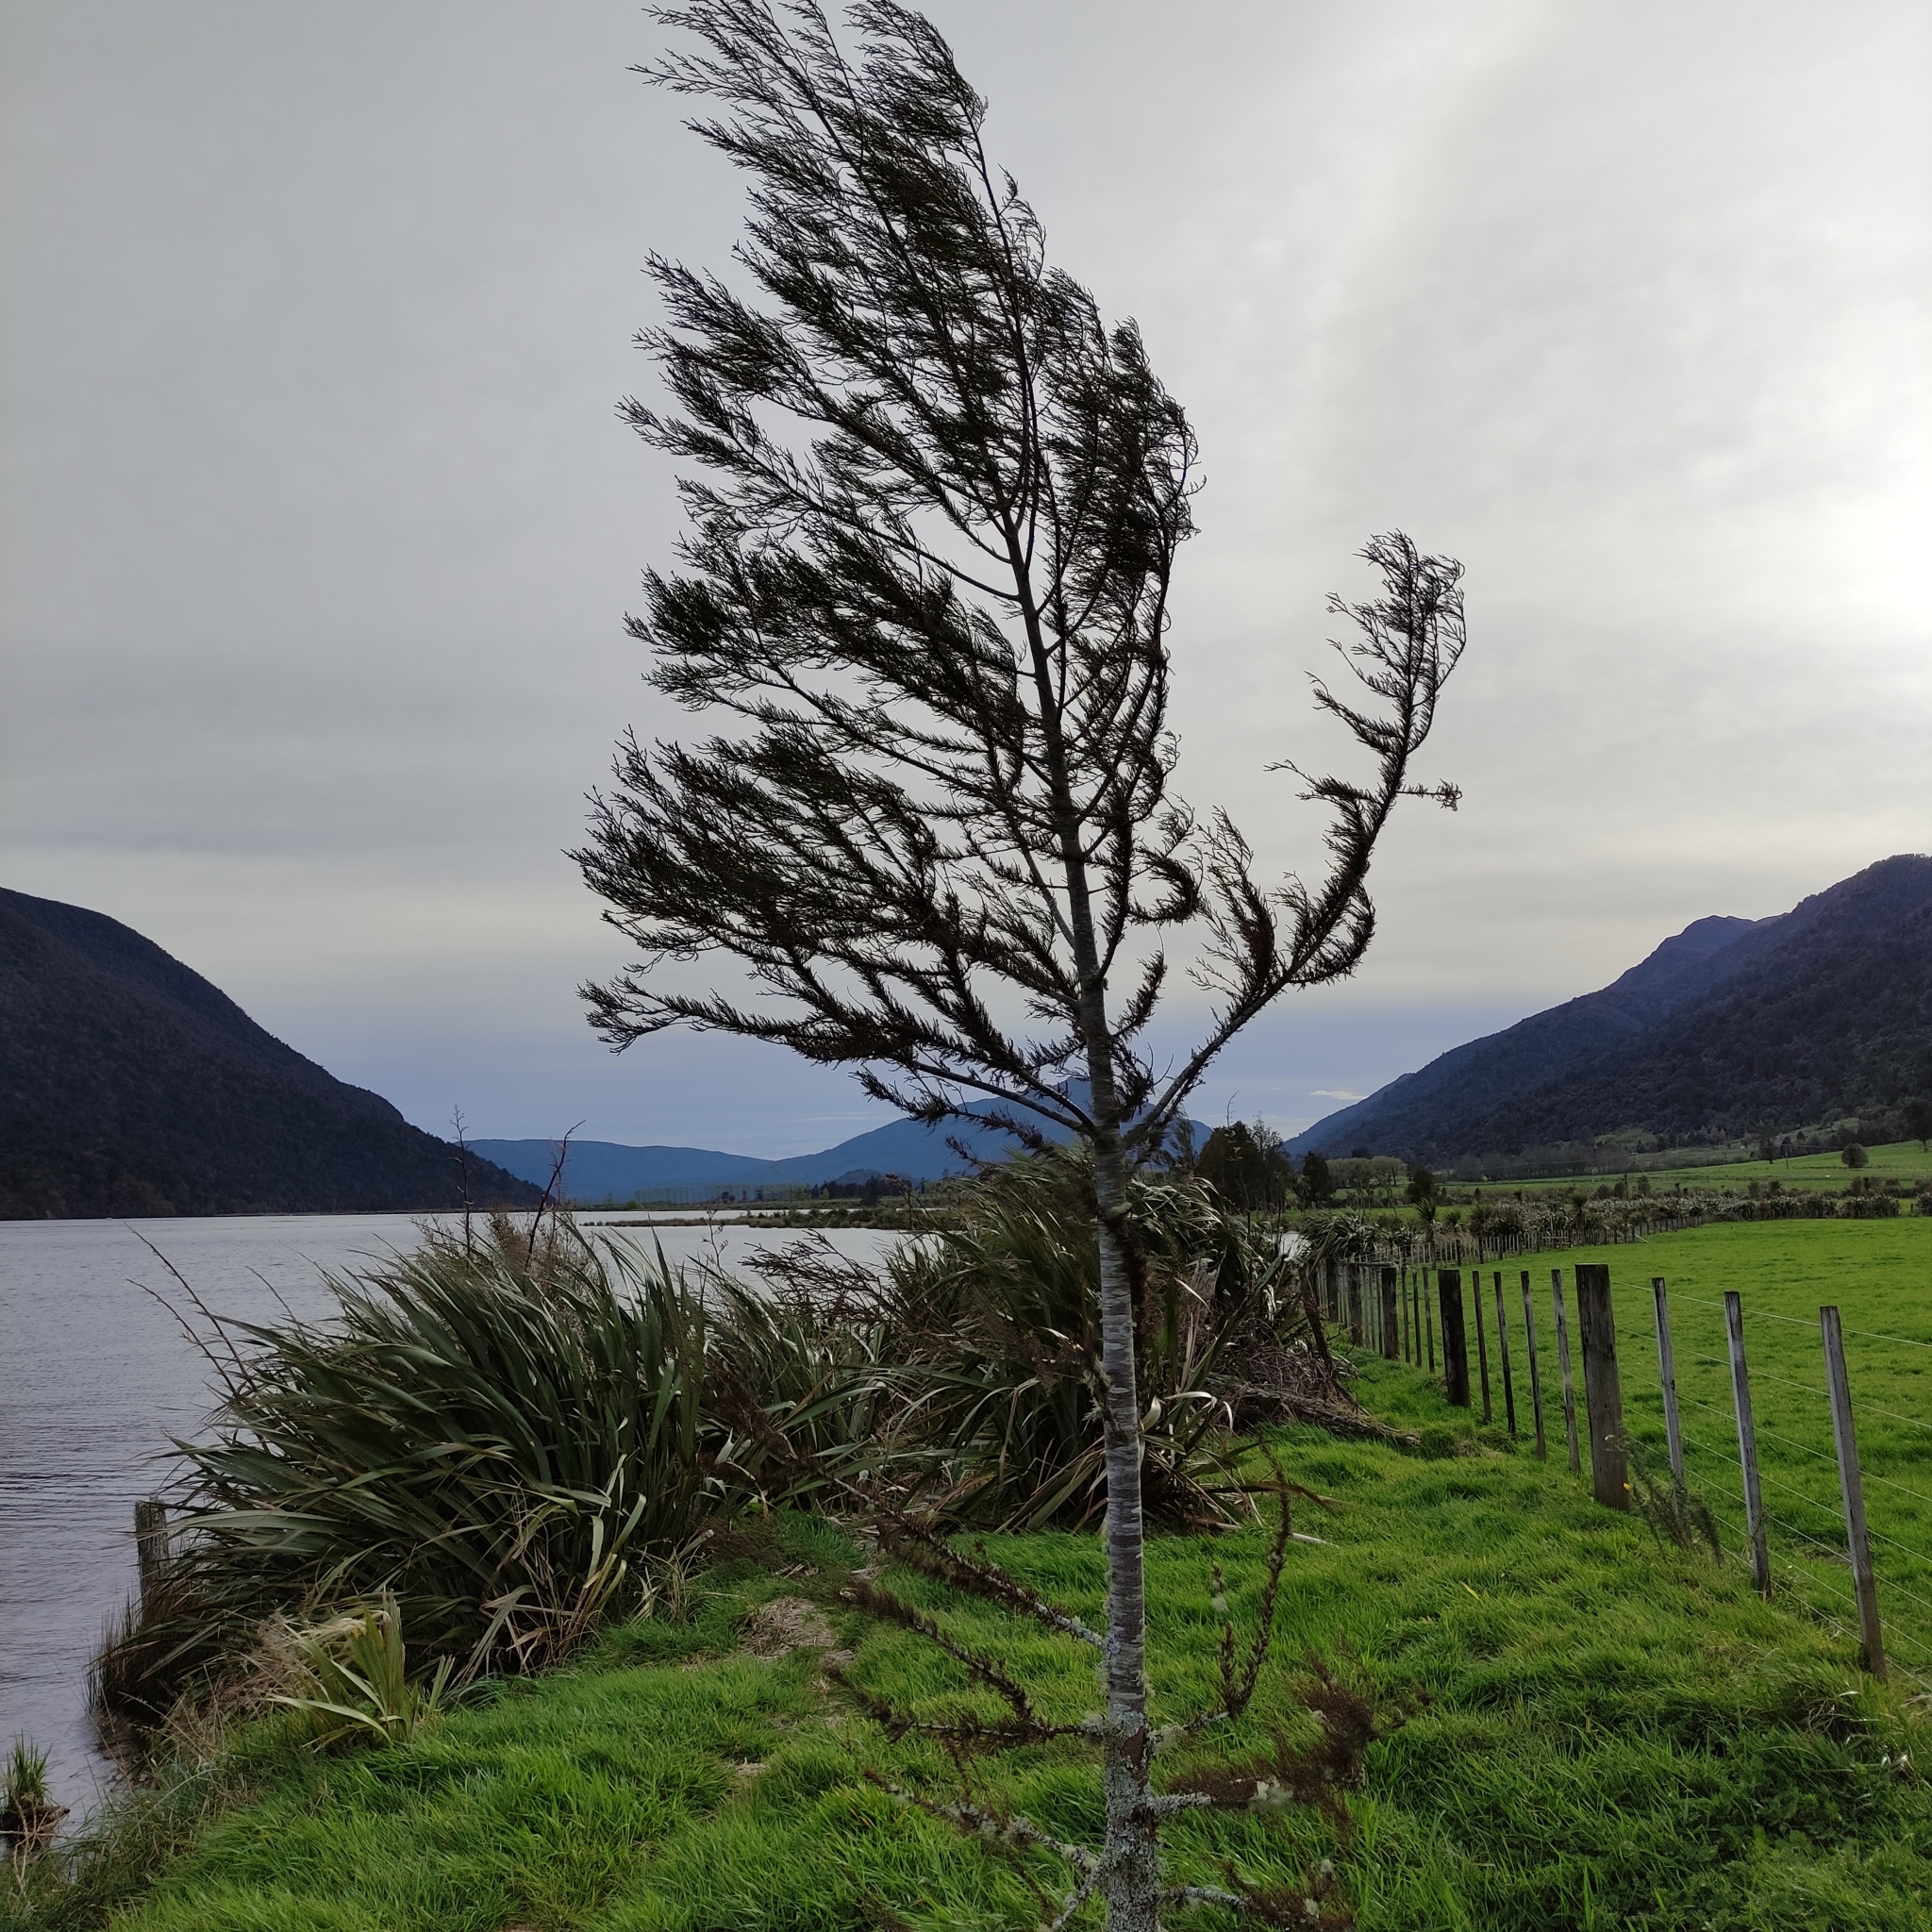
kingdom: Plantae
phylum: Tracheophyta
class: Pinopsida
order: Pinales
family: Podocarpaceae
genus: Dacrycarpus
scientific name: Dacrycarpus dacrydioides
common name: White pine
